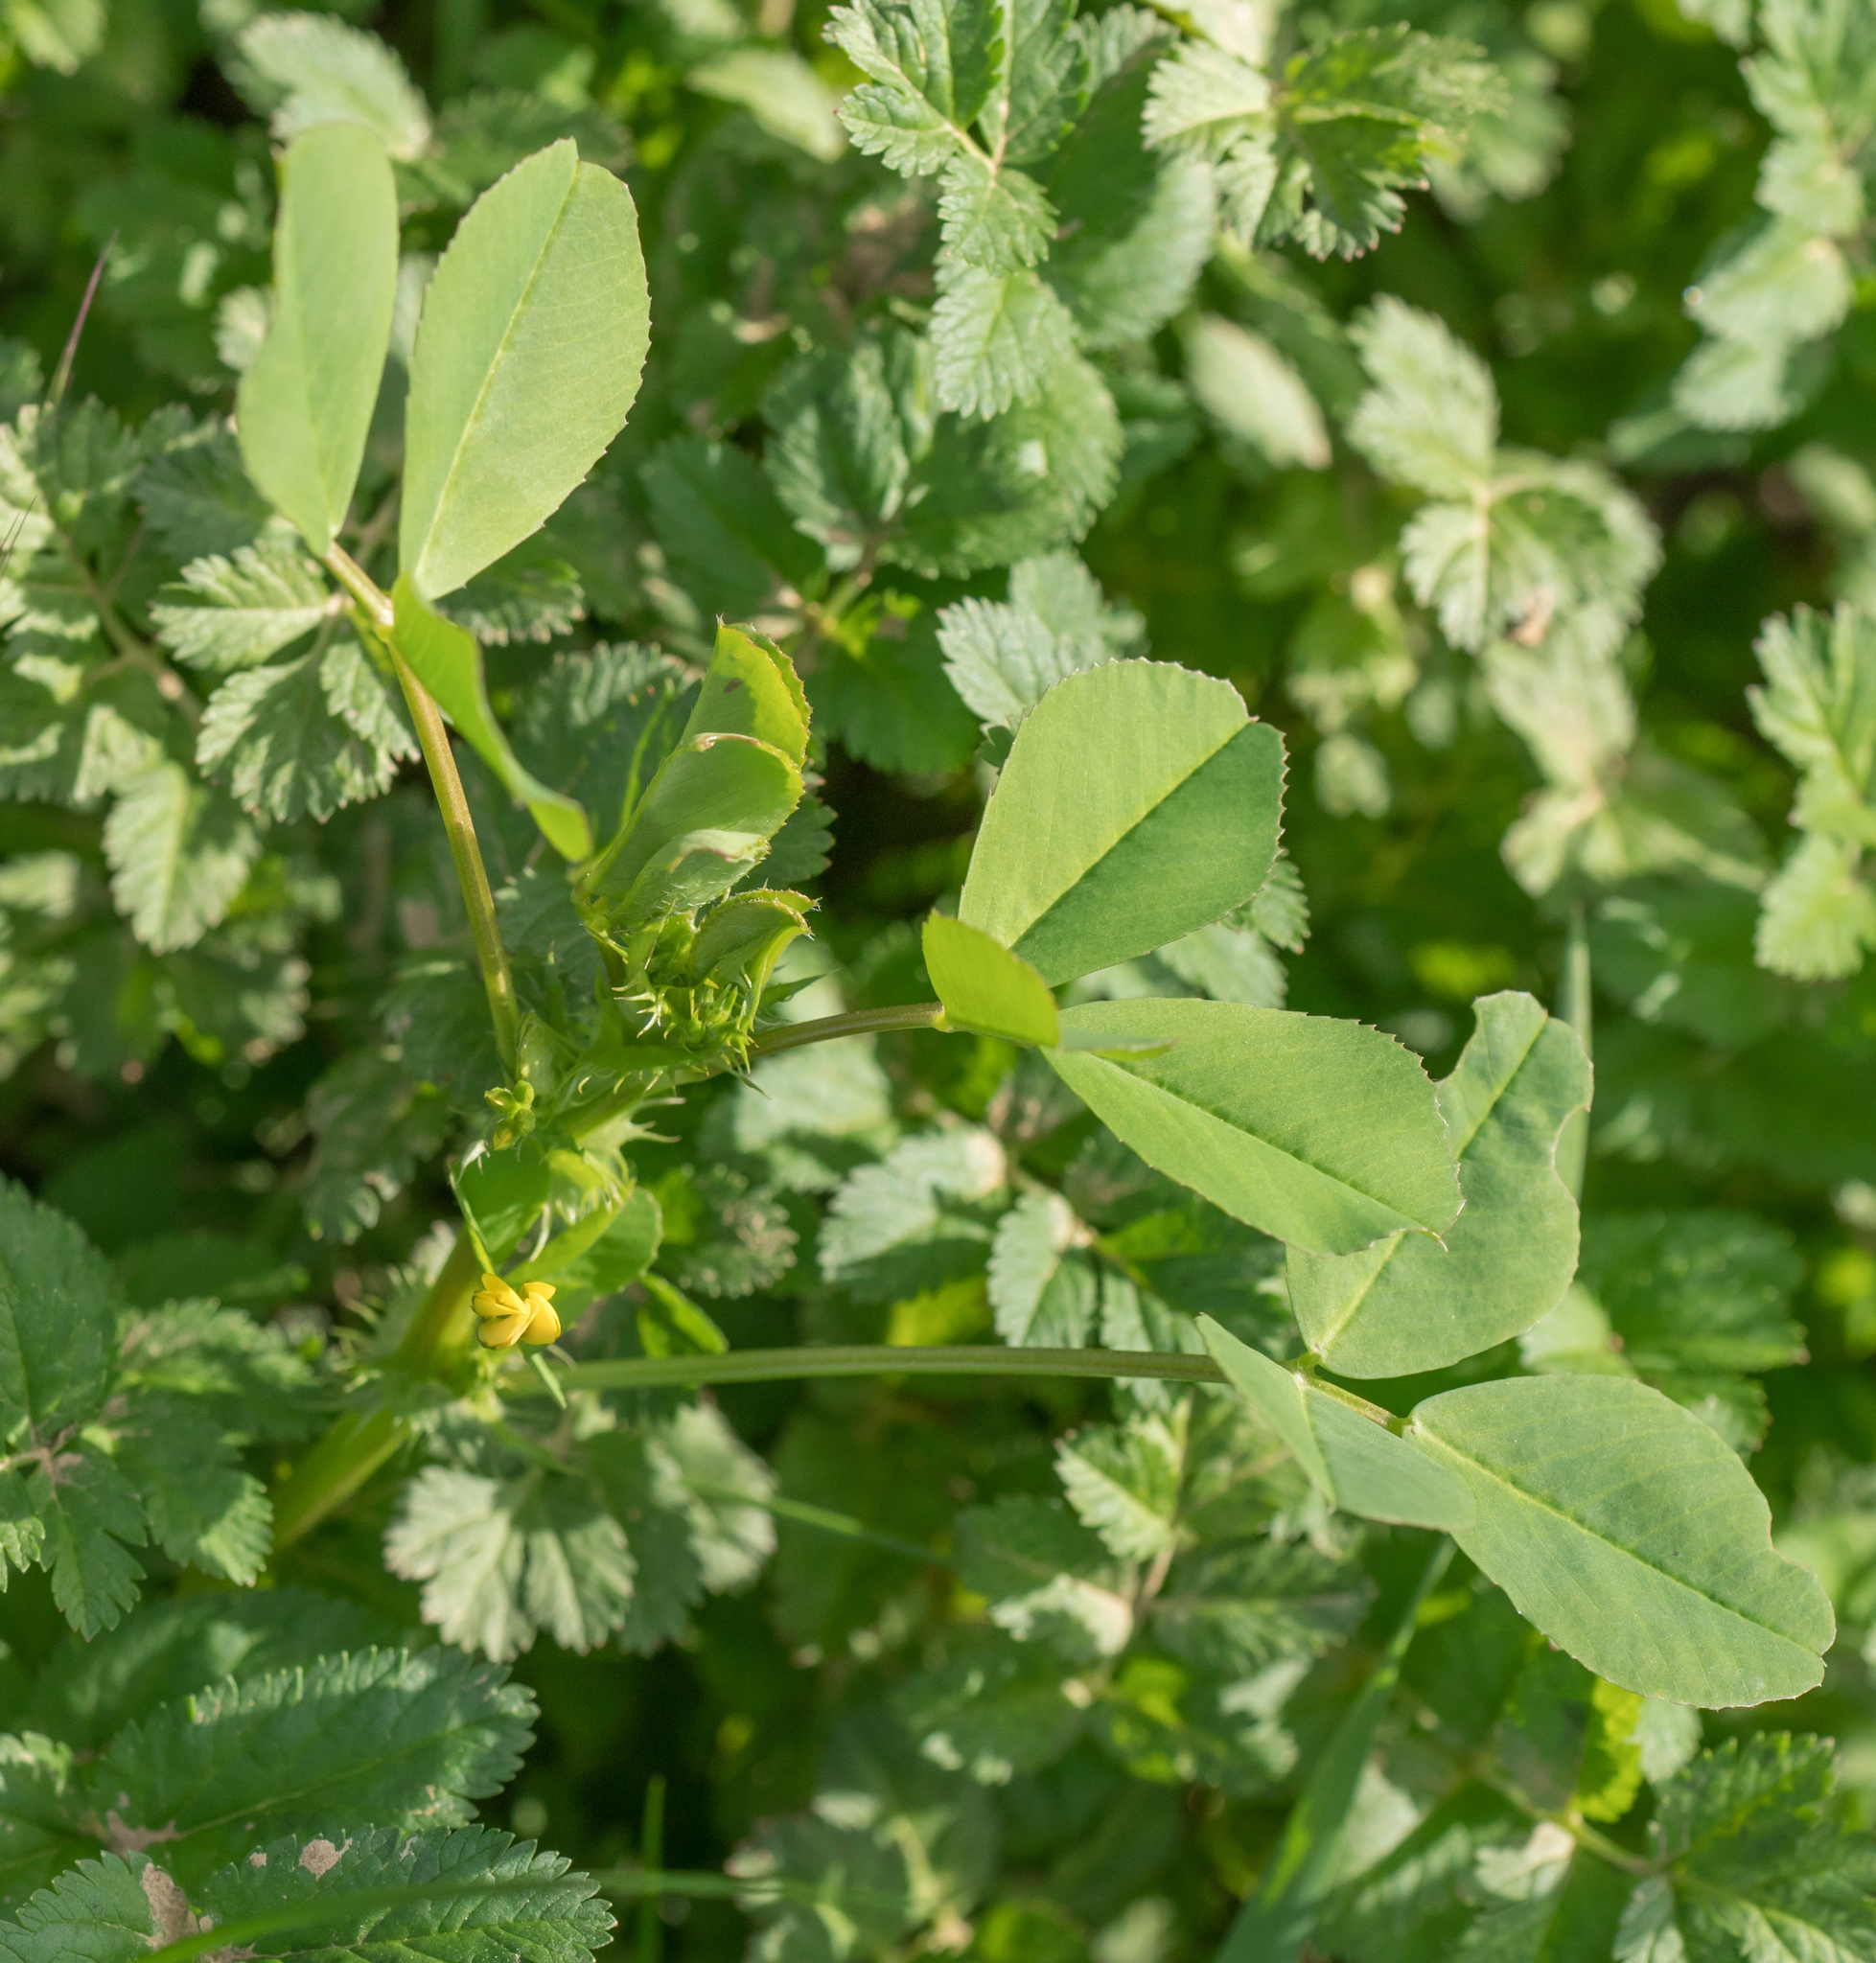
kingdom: Plantae
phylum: Tracheophyta
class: Magnoliopsida
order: Fabales
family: Fabaceae
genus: Medicago
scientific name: Medicago polymorpha
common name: Burclover
